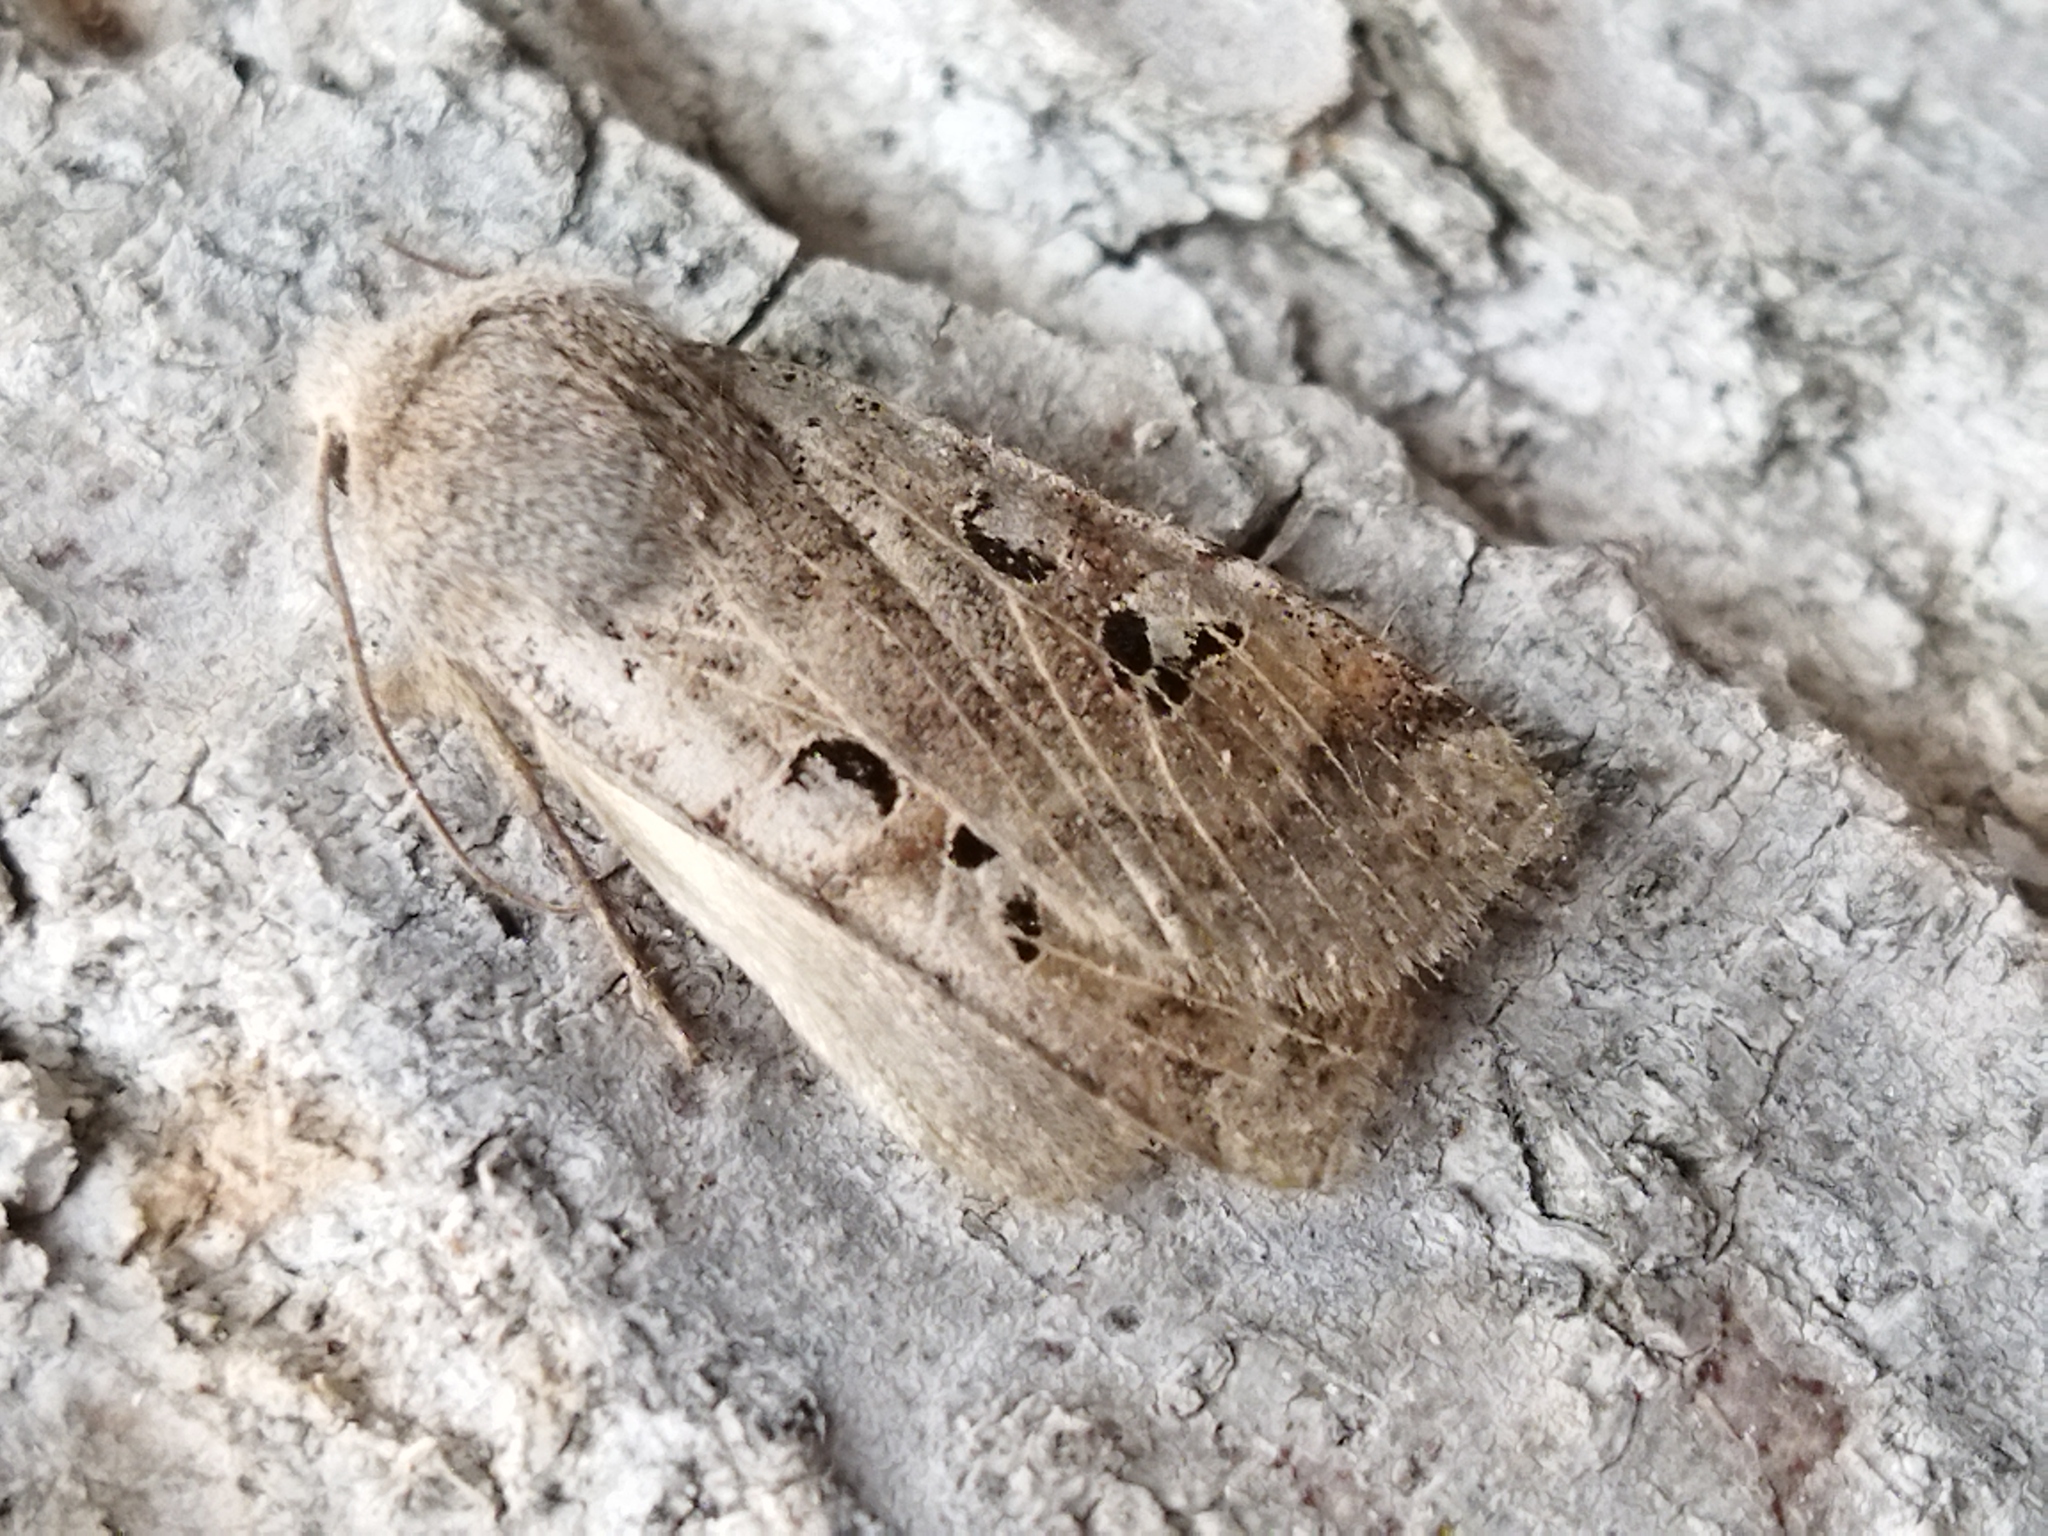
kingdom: Animalia
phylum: Arthropoda
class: Insecta
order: Lepidoptera
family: Noctuidae
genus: Conistra
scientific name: Conistra rubiginosa
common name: Black-spotted chestnut
